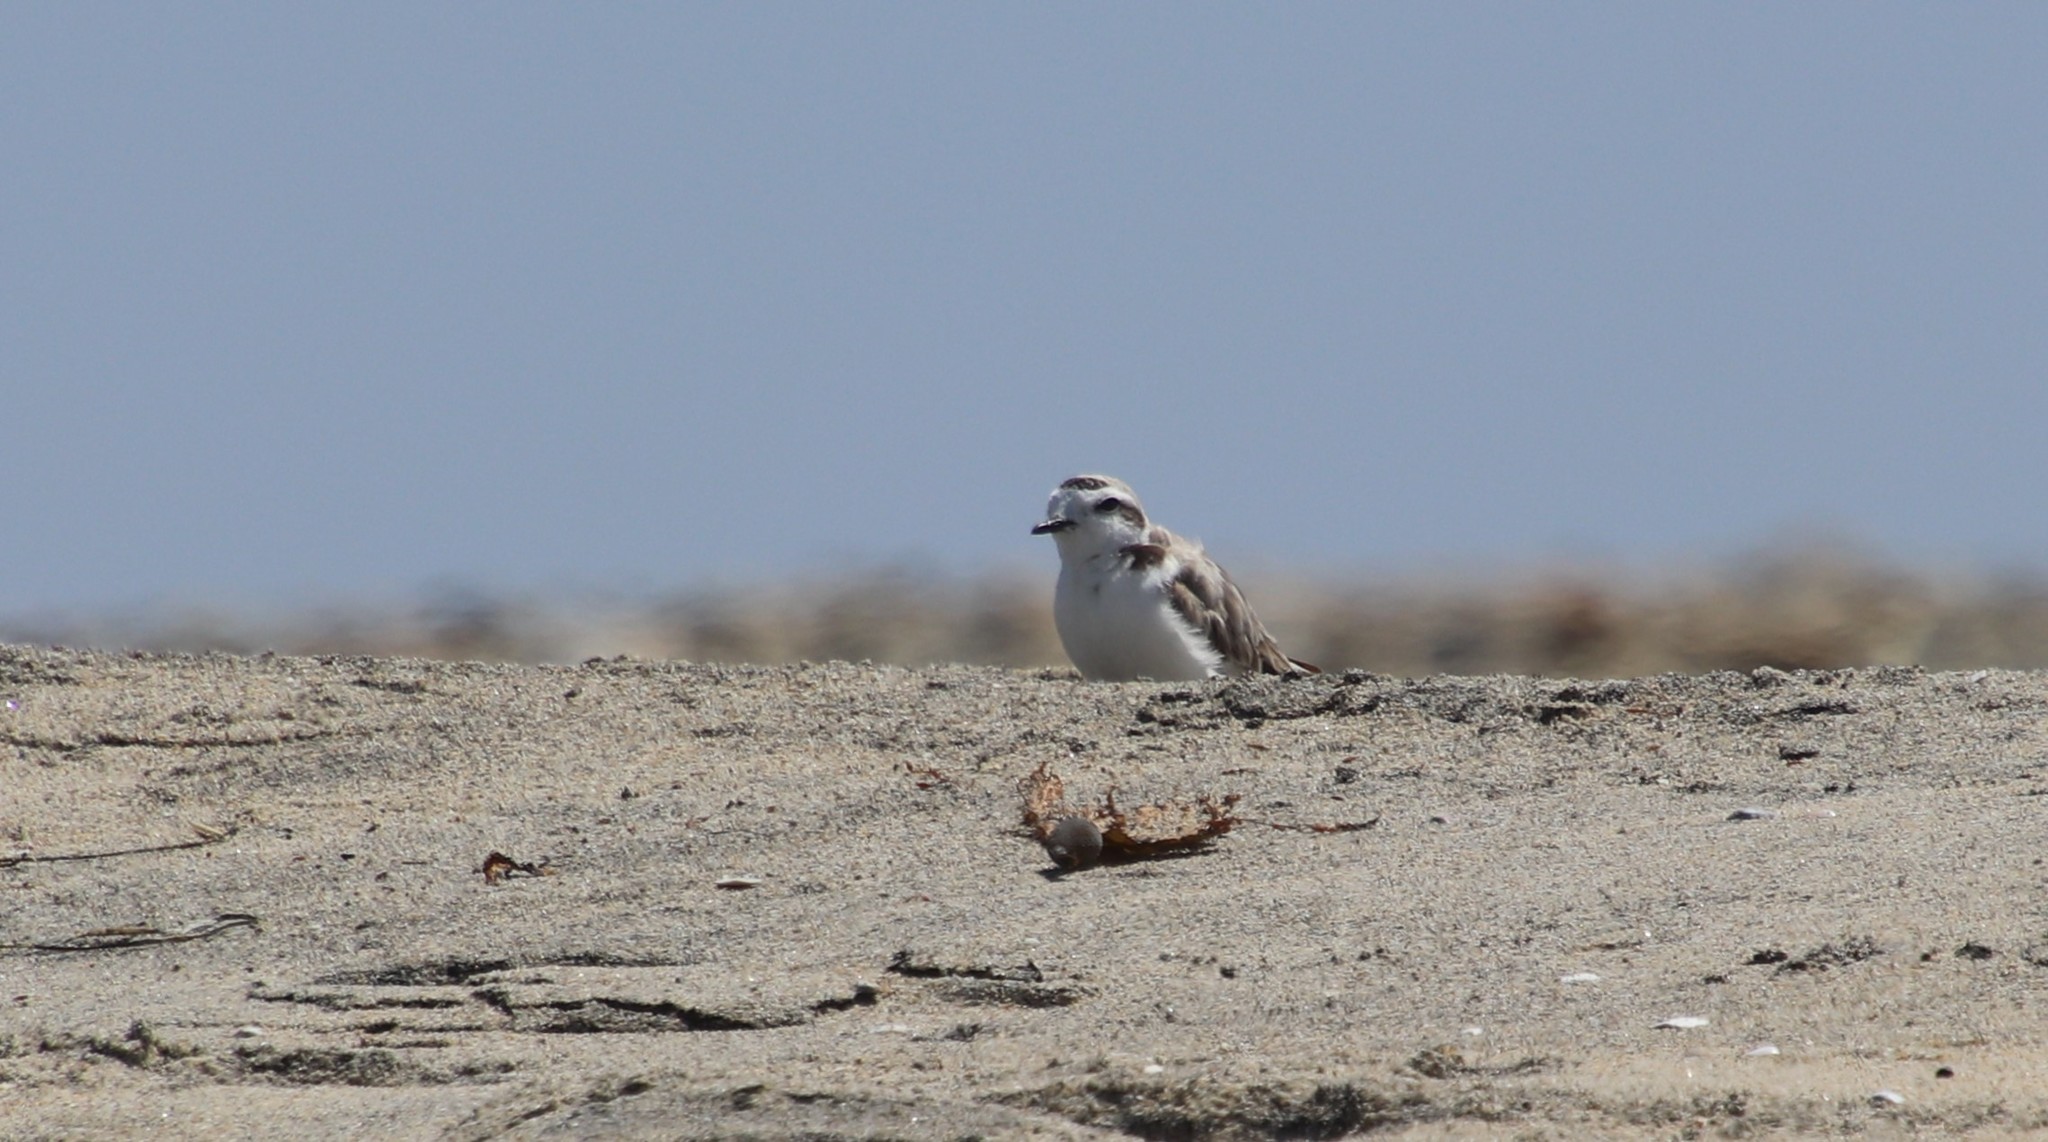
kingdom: Animalia
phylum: Chordata
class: Aves
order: Charadriiformes
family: Charadriidae
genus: Anarhynchus
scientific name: Anarhynchus
